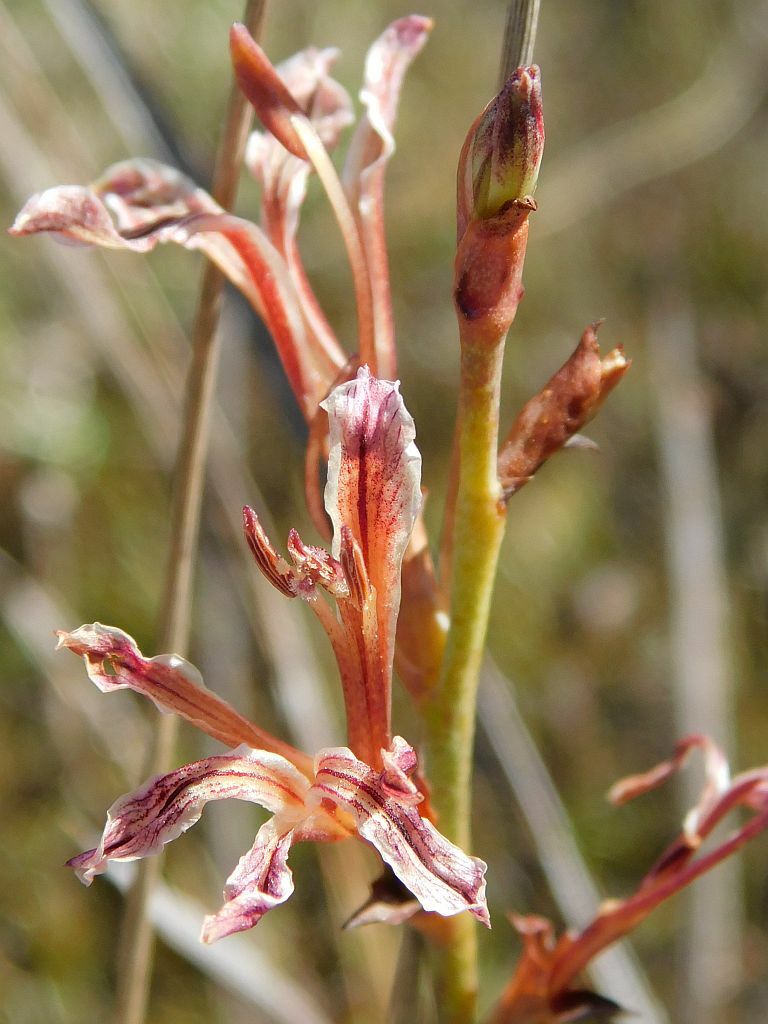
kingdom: Plantae
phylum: Tracheophyta
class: Liliopsida
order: Asparagales
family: Iridaceae
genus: Tritoniopsis
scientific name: Tritoniopsis elongata
